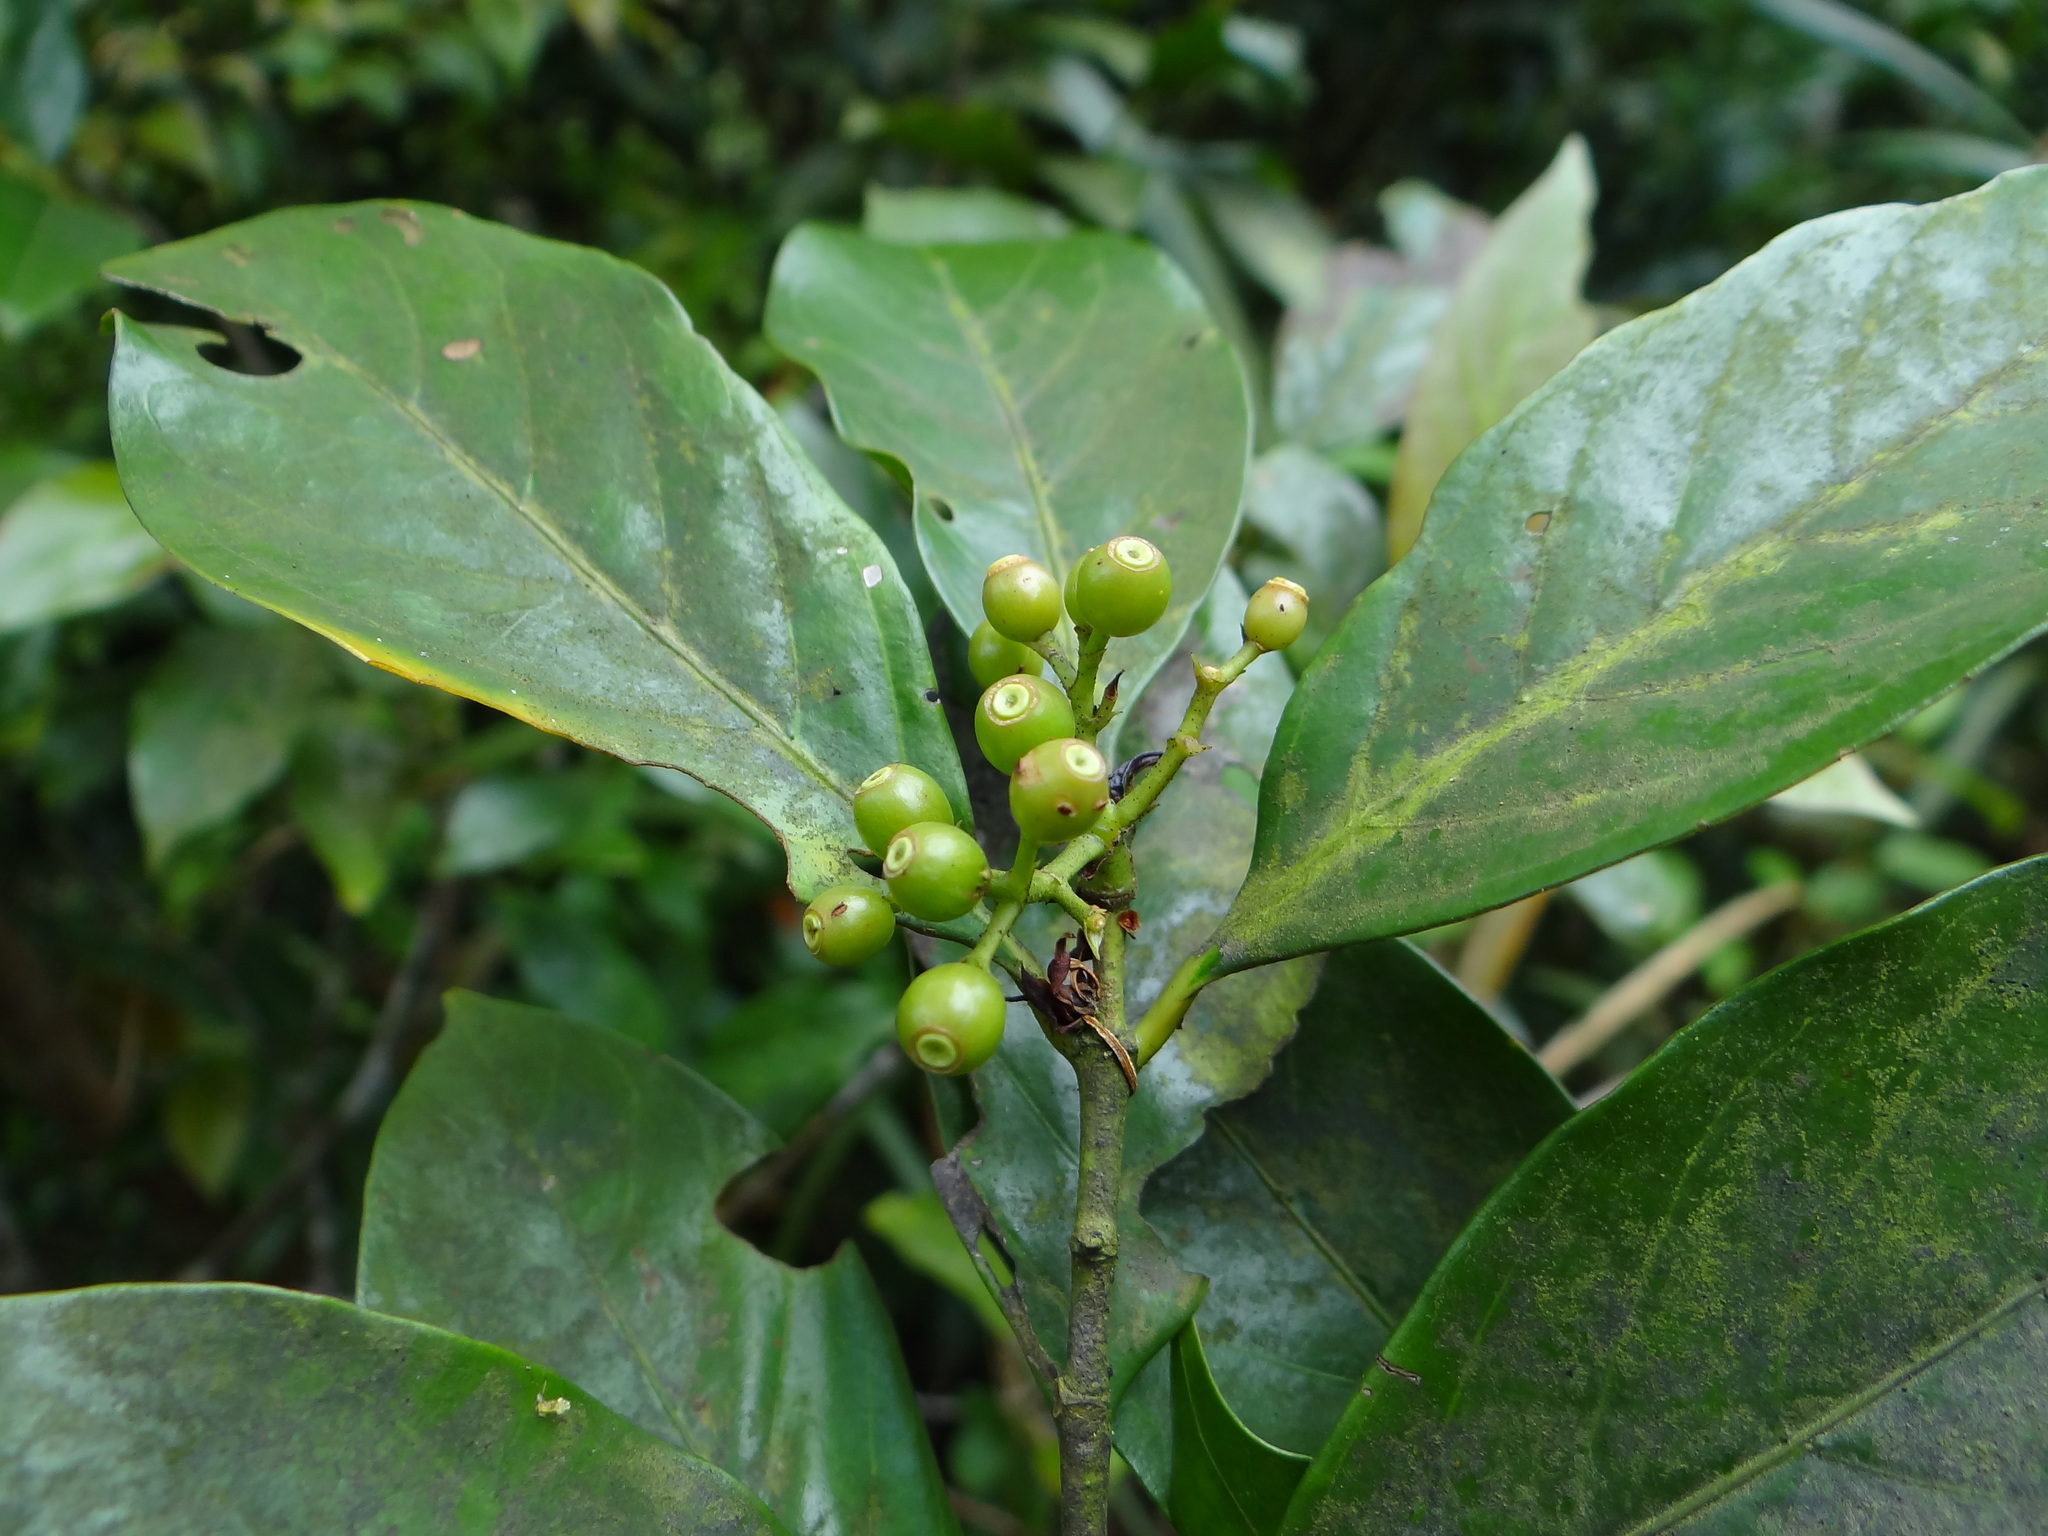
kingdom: Plantae
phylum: Tracheophyta
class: Magnoliopsida
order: Gentianales
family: Rubiaceae
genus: Aidia
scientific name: Aidia cochinchinensis
